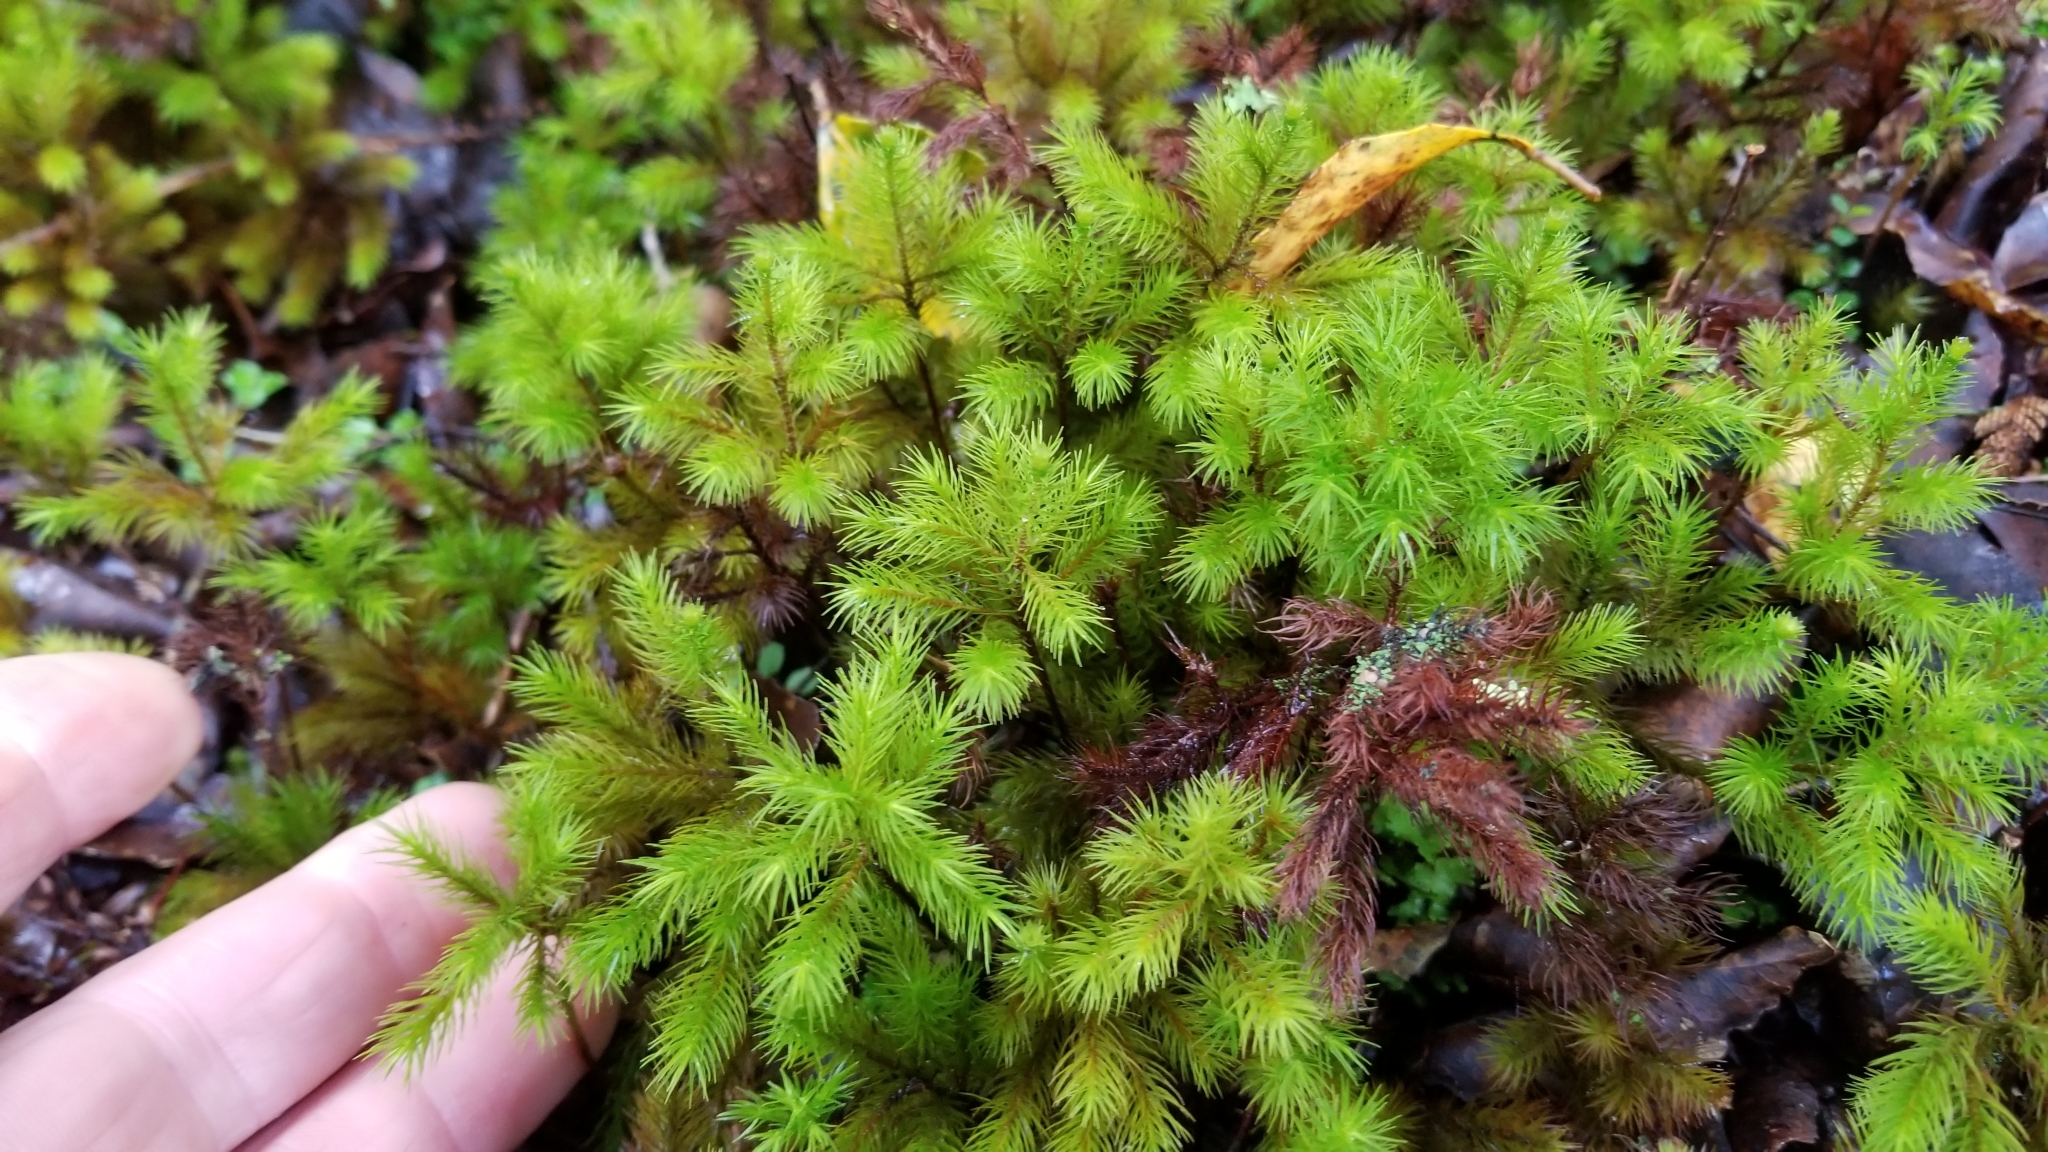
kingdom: Plantae
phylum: Bryophyta
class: Polytrichopsida
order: Polytrichales
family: Polytrichaceae
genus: Dendroligotrichum
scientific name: Dendroligotrichum tongariroense
